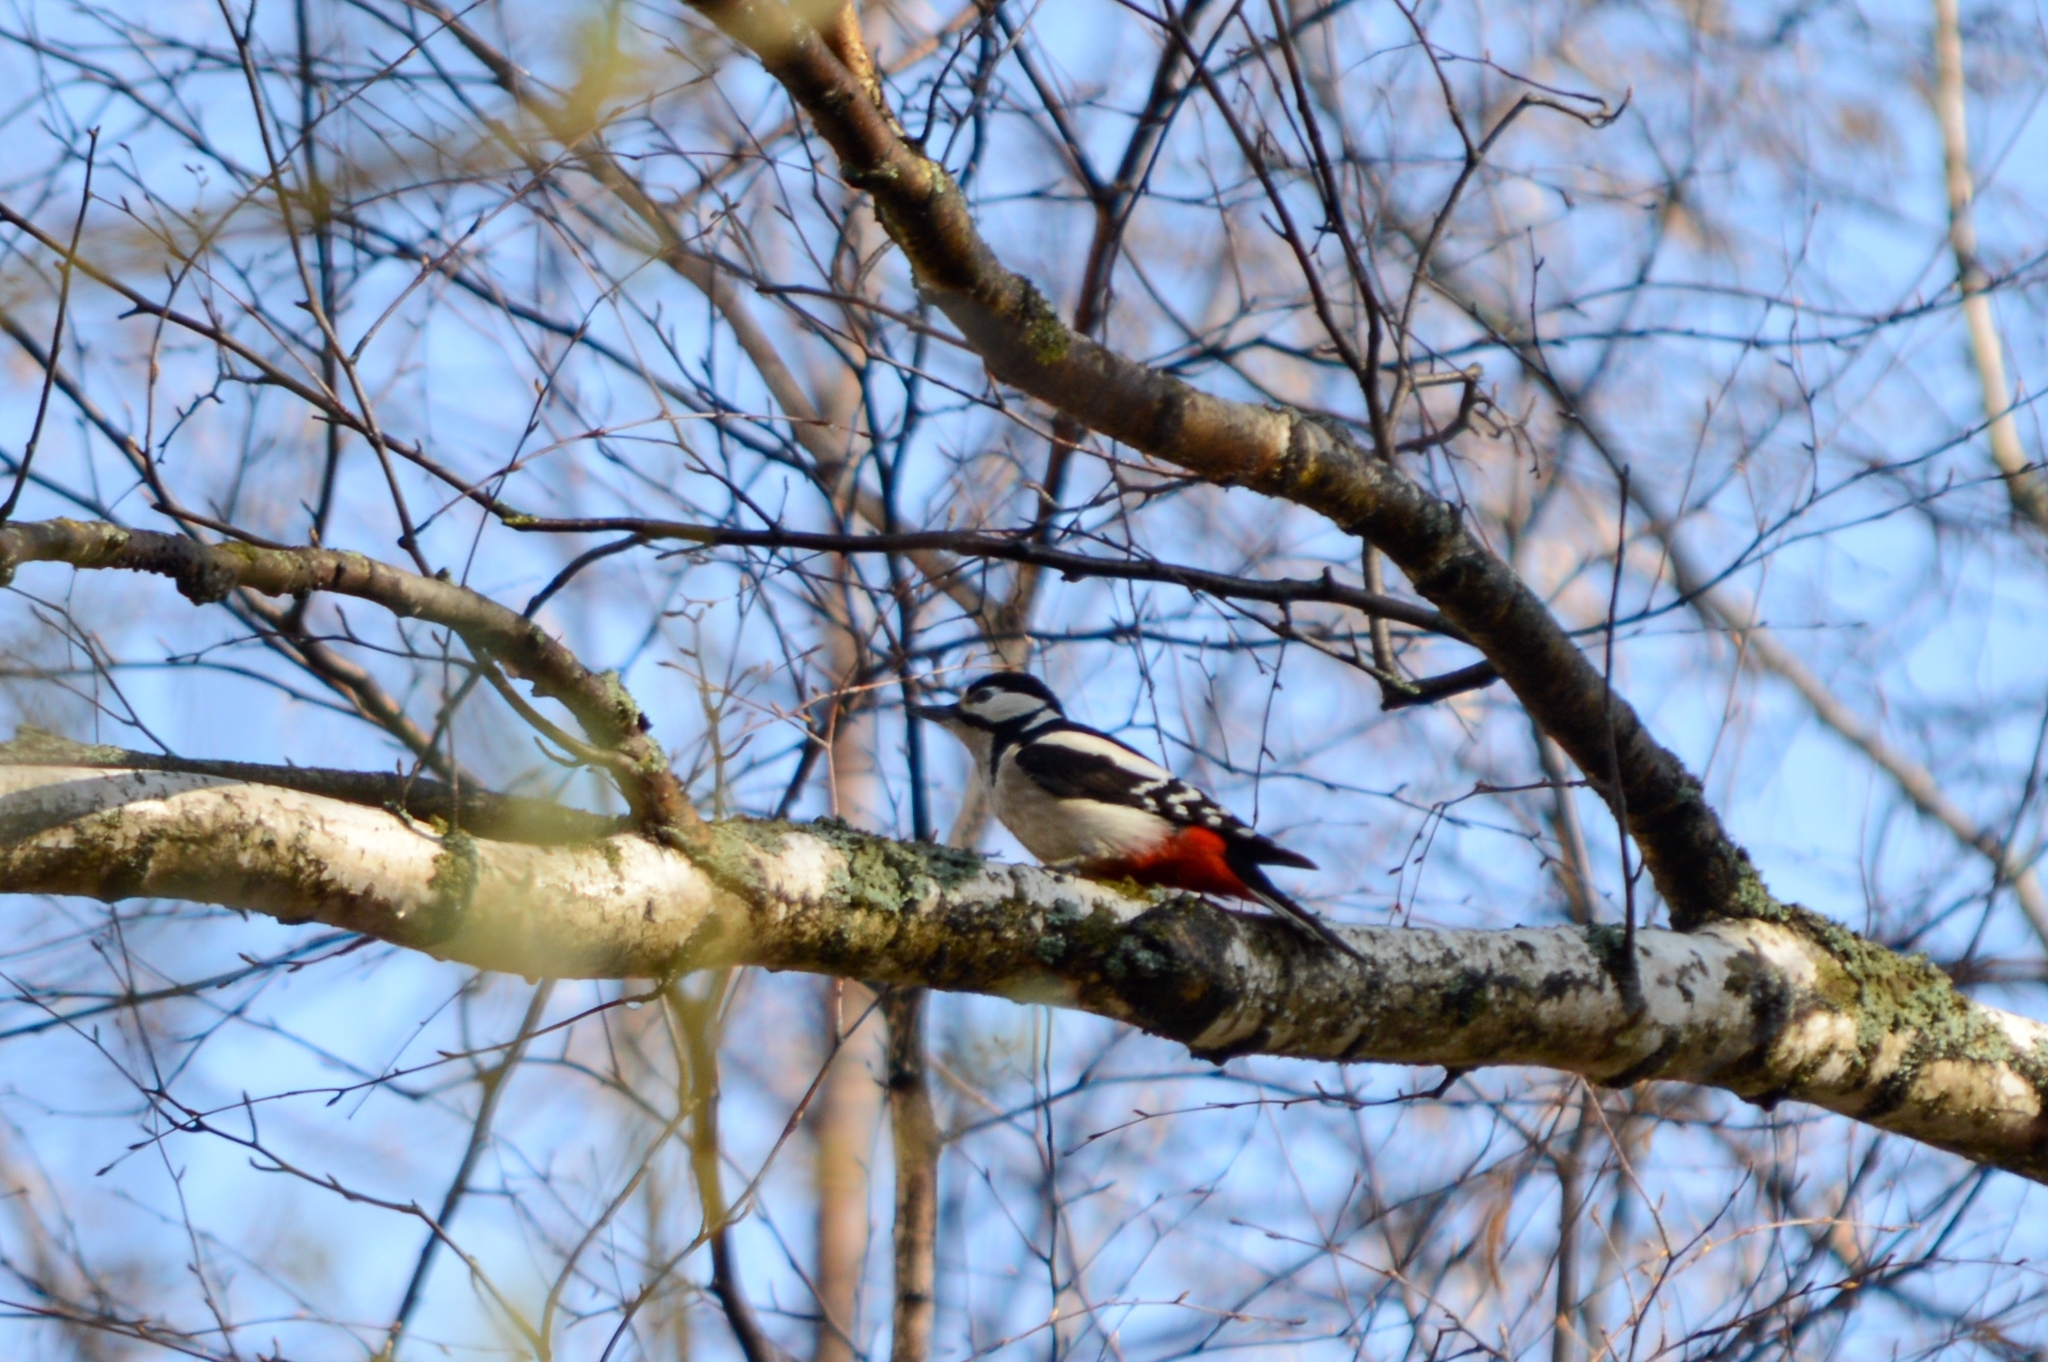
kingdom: Animalia
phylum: Chordata
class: Aves
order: Piciformes
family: Picidae
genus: Dendrocopos
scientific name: Dendrocopos major
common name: Great spotted woodpecker
